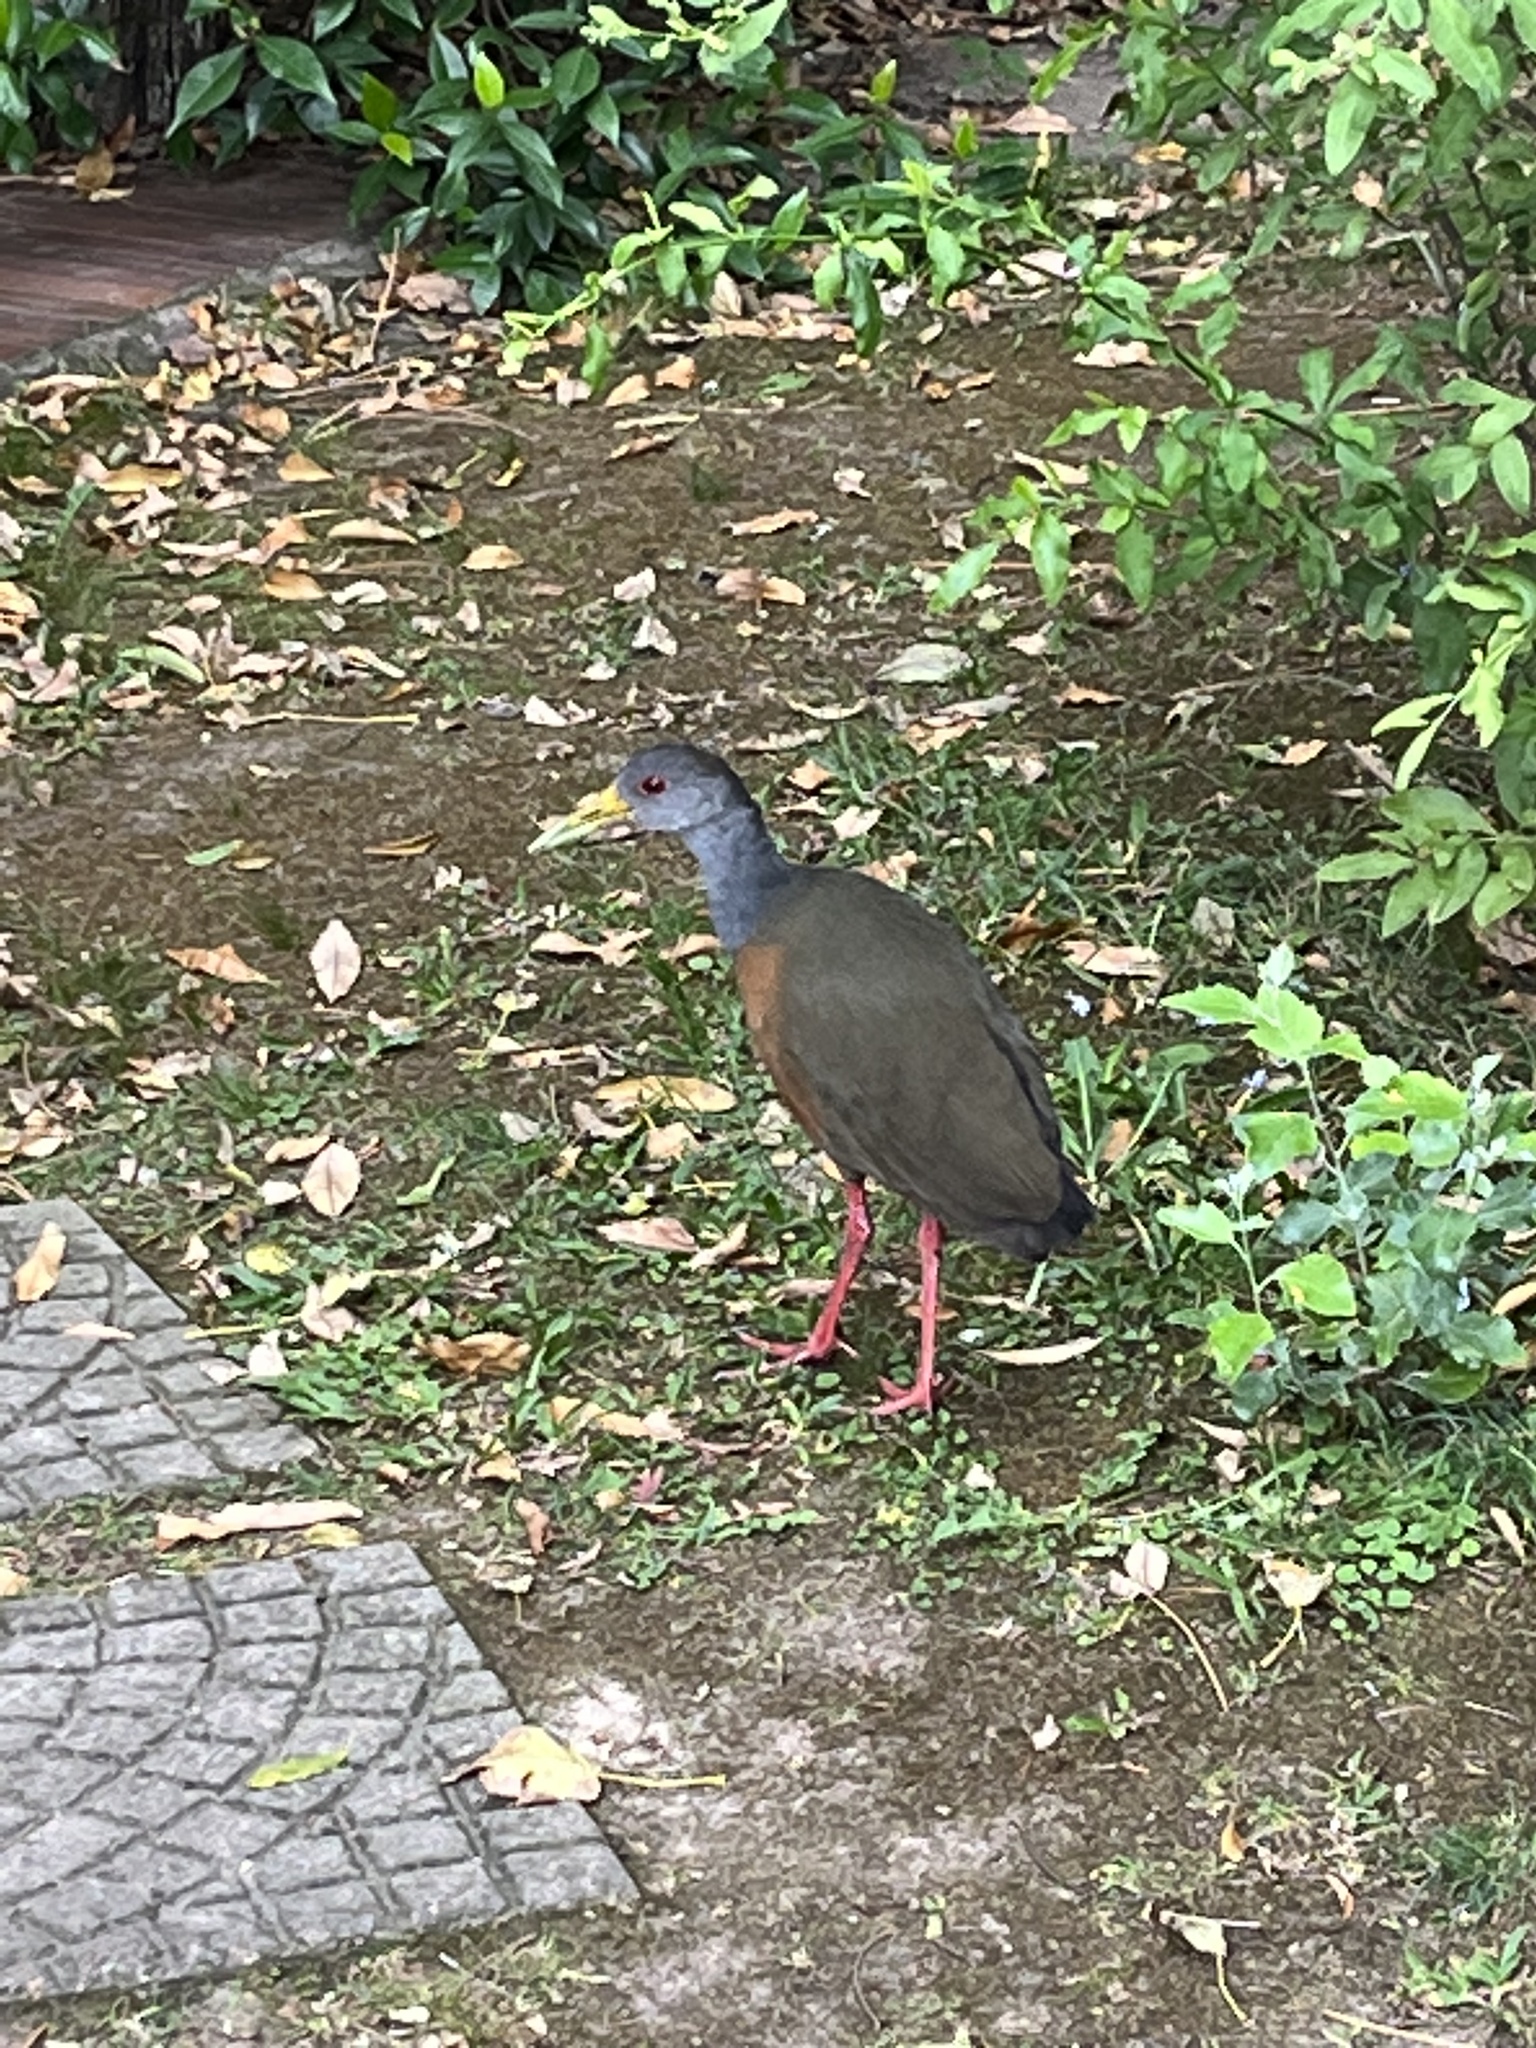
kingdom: Animalia
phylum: Chordata
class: Aves
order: Gruiformes
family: Rallidae
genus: Aramides
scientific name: Aramides cajanea
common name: Gray-necked wood-rail
